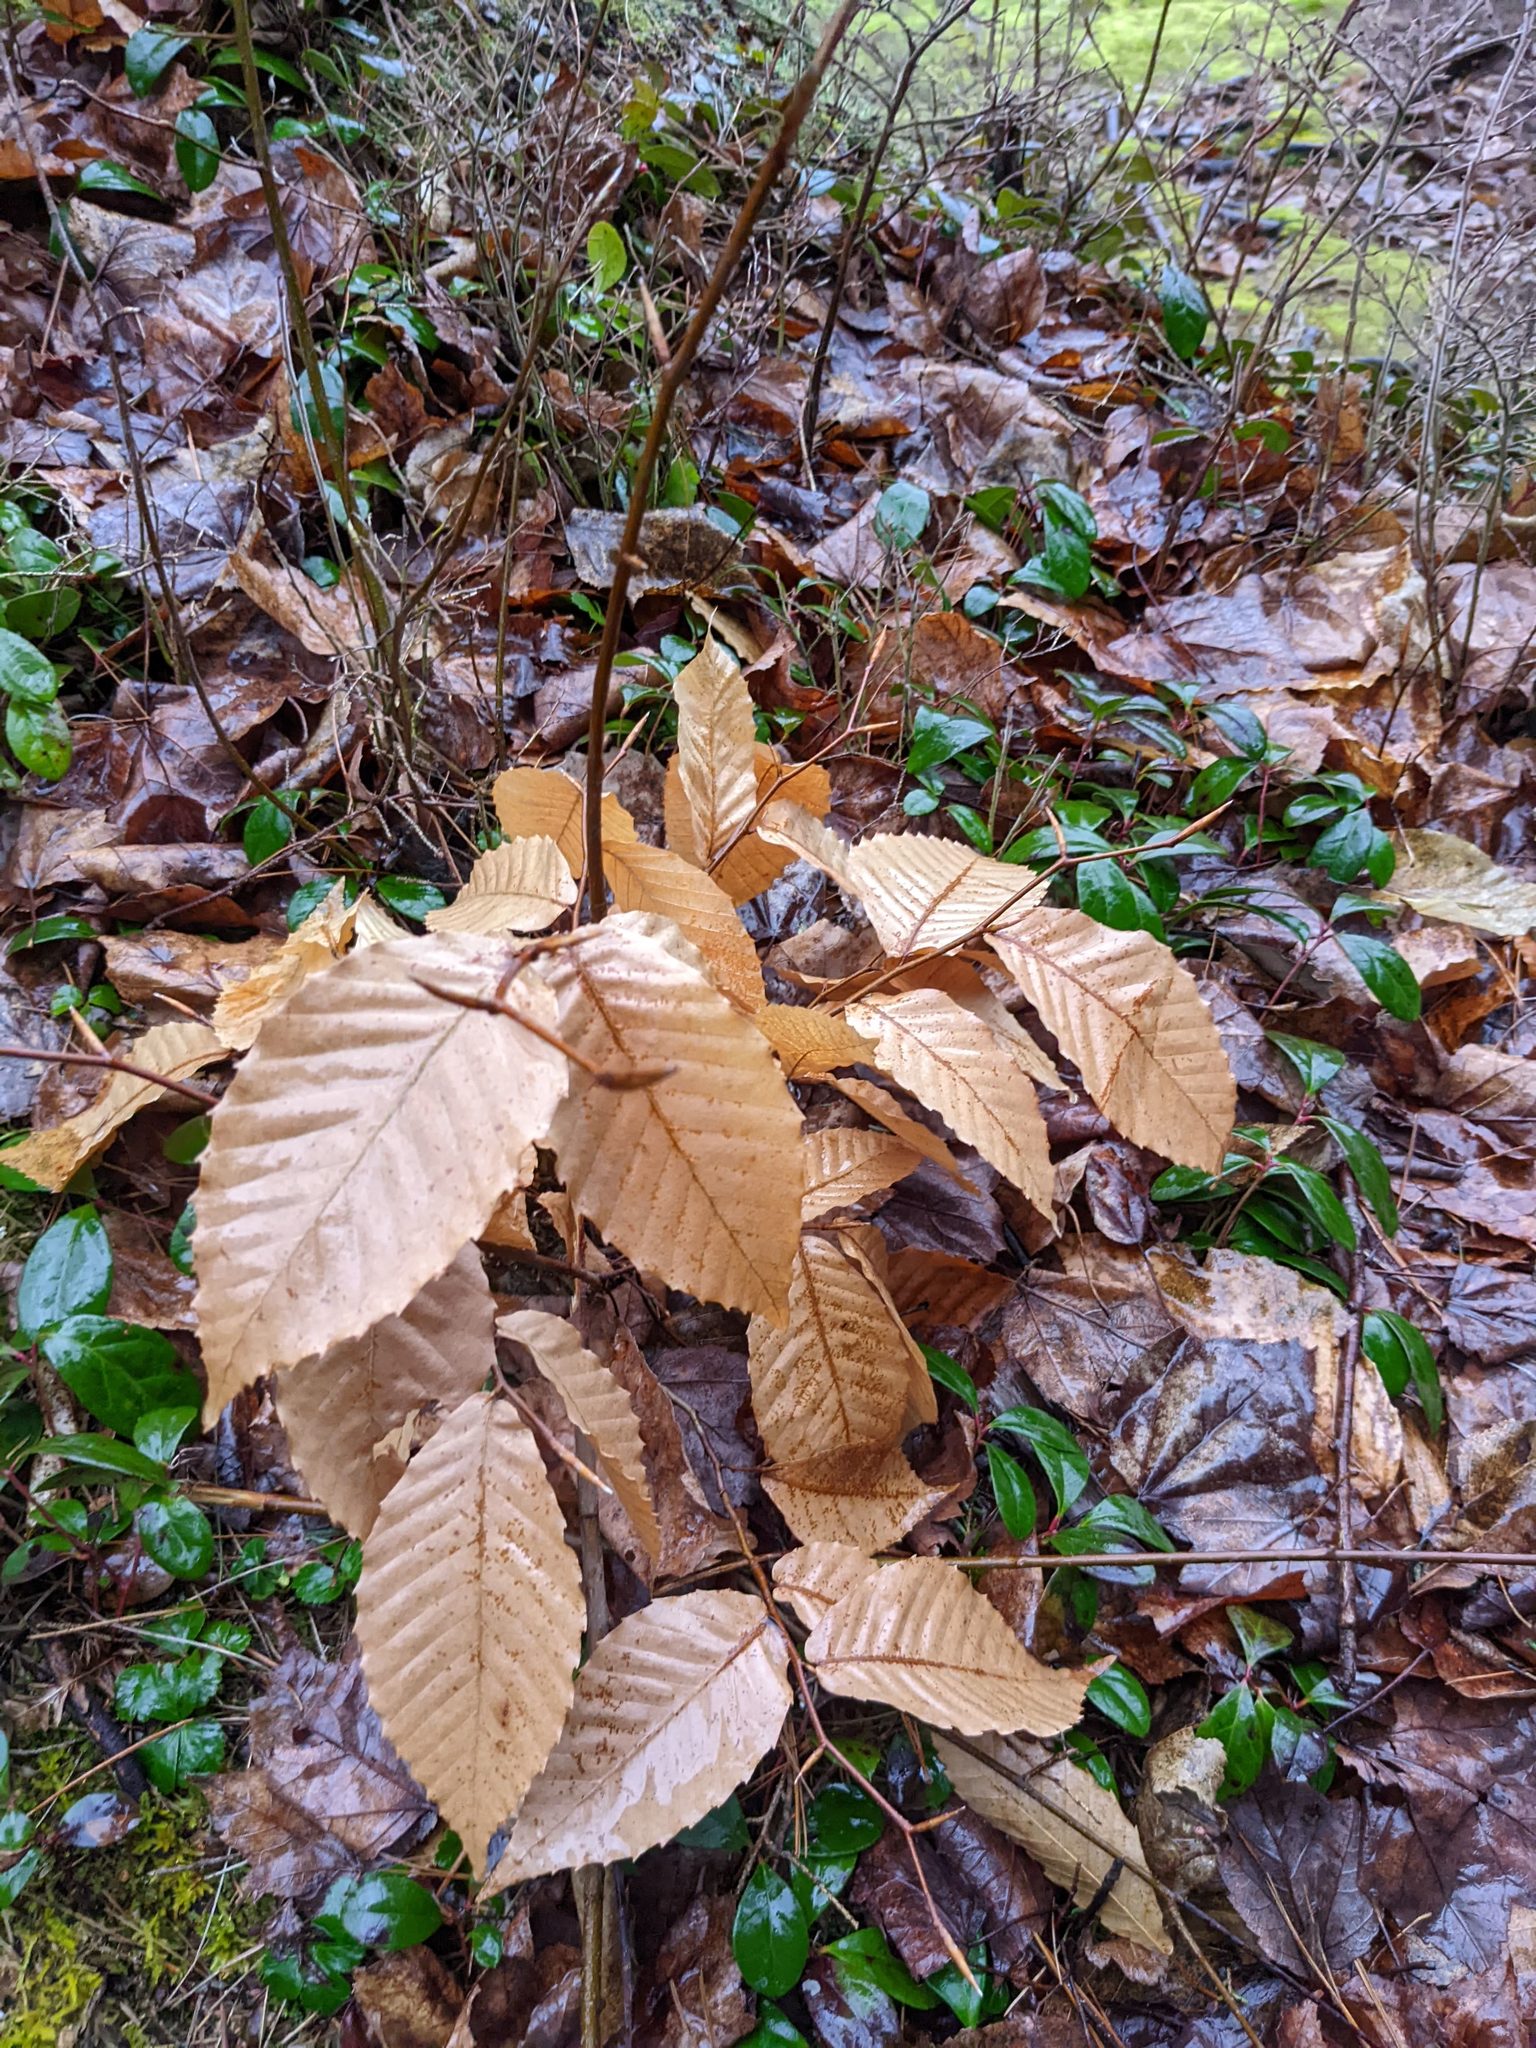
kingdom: Plantae
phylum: Tracheophyta
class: Magnoliopsida
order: Fagales
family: Fagaceae
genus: Fagus
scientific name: Fagus grandifolia
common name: American beech
